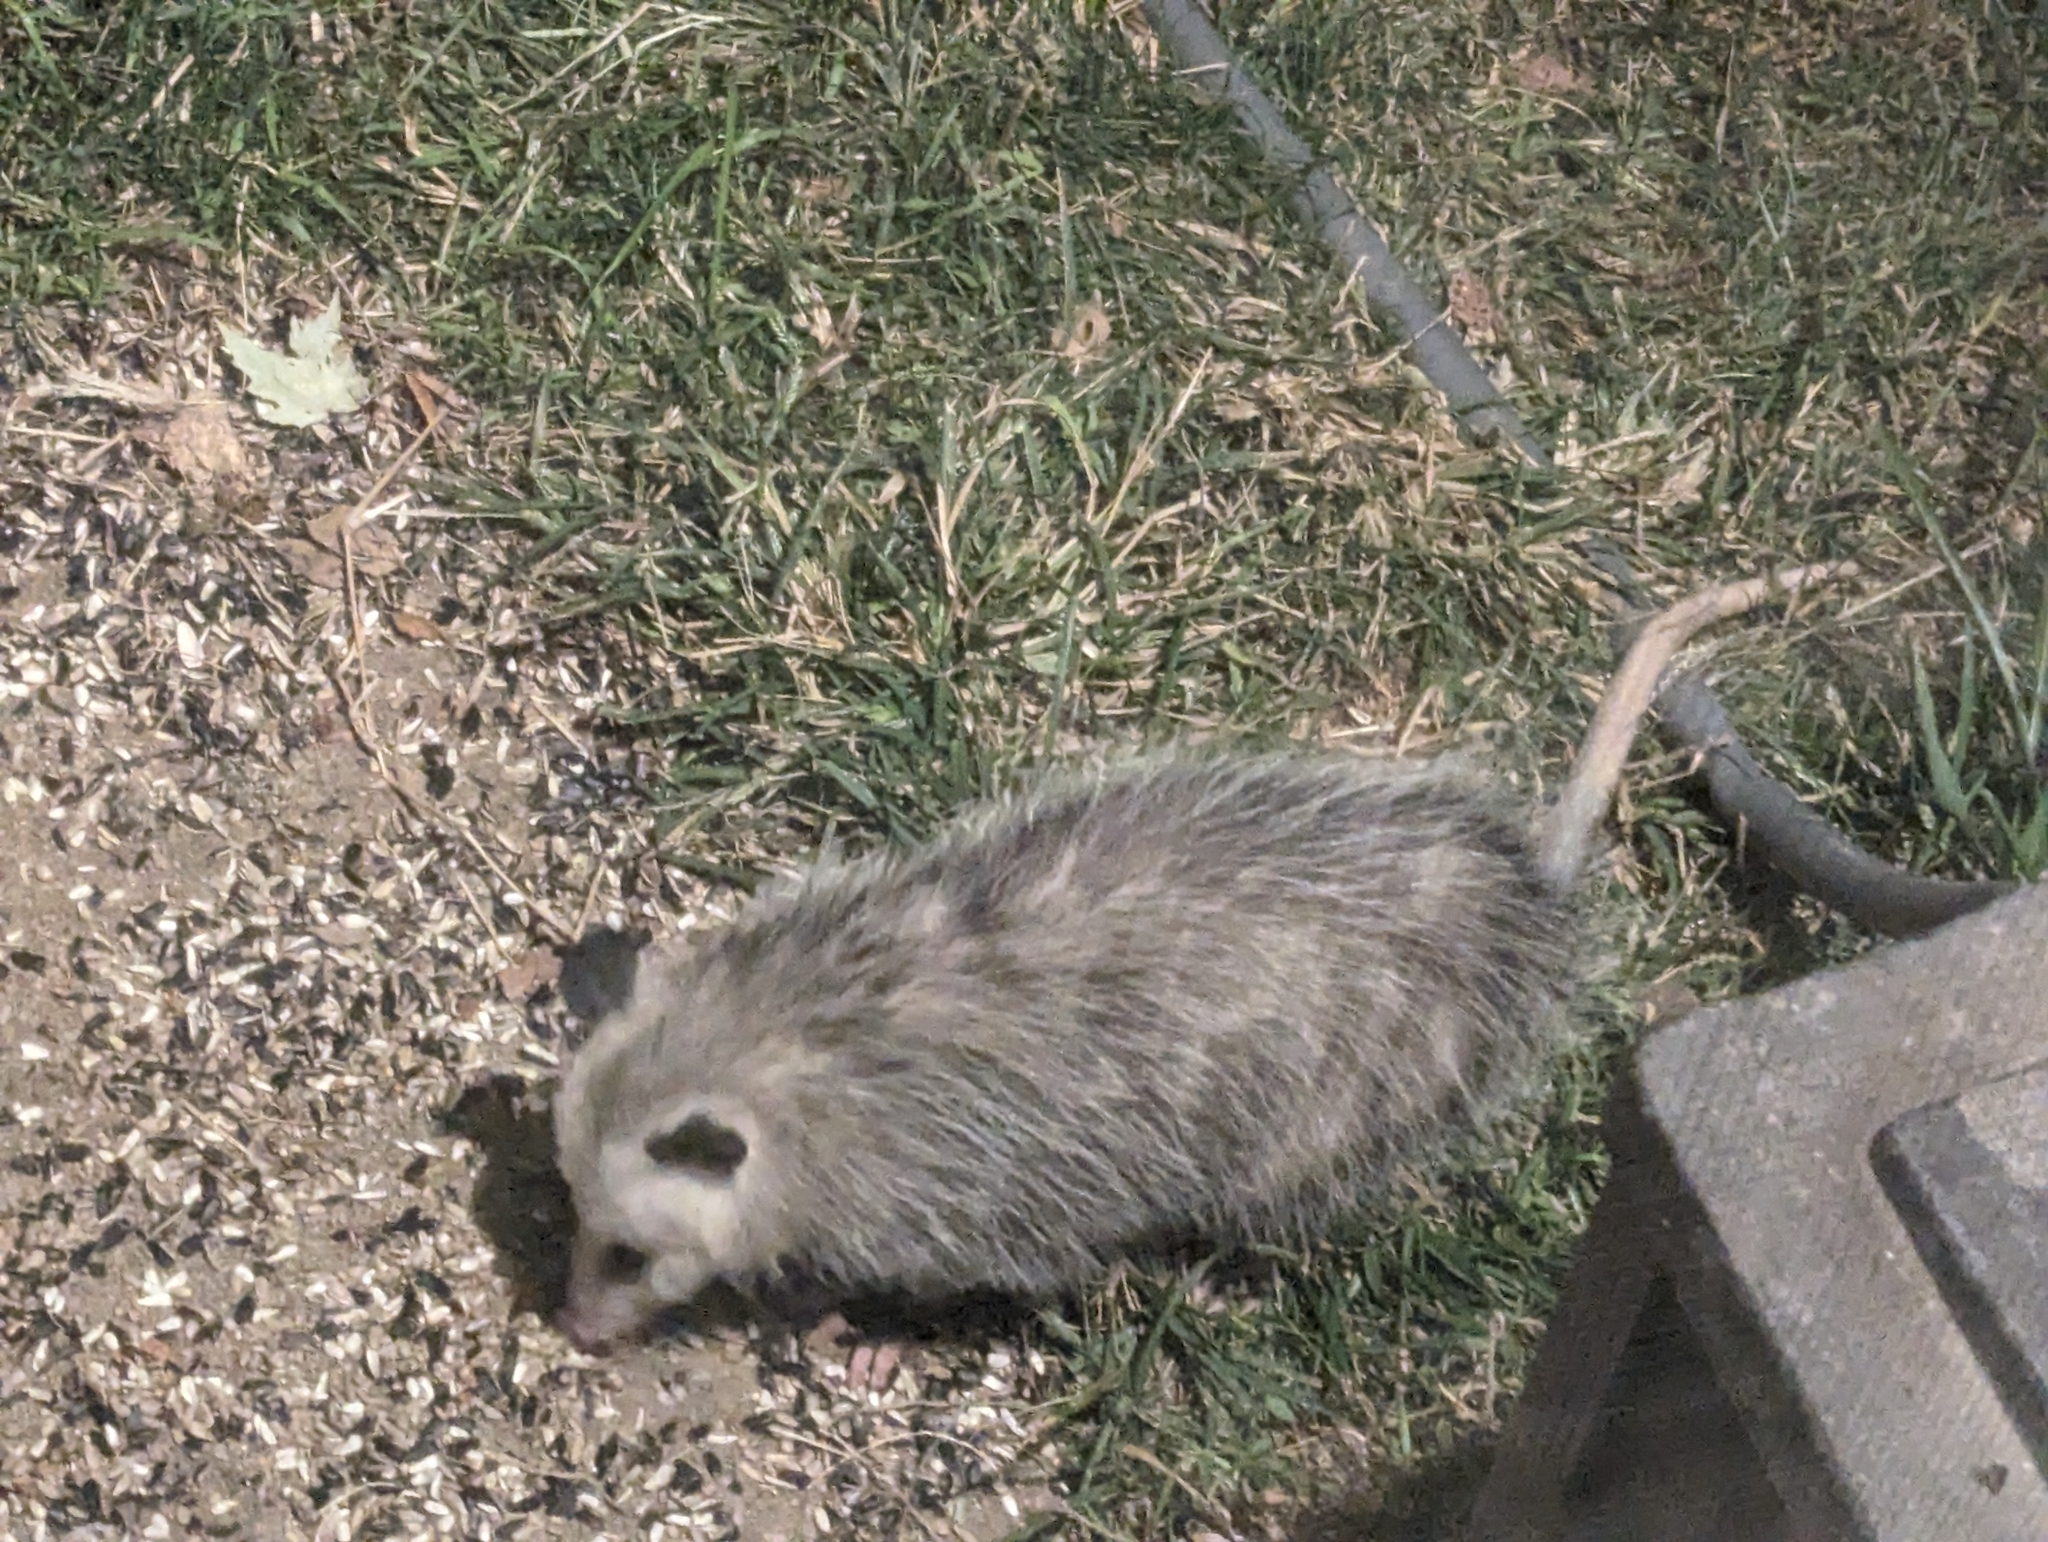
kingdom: Animalia
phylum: Chordata
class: Mammalia
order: Didelphimorphia
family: Didelphidae
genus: Didelphis
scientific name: Didelphis virginiana
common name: Virginia opossum
